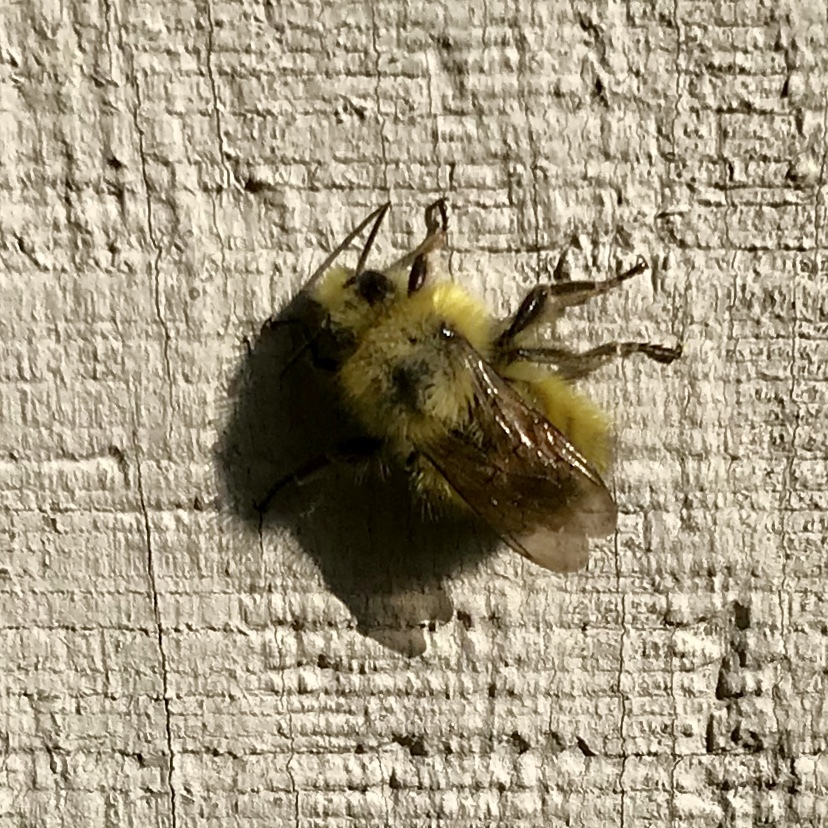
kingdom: Animalia
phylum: Arthropoda
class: Insecta
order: Hymenoptera
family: Apidae
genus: Bombus
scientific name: Bombus flavifrons
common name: Yellow head bumble bee
